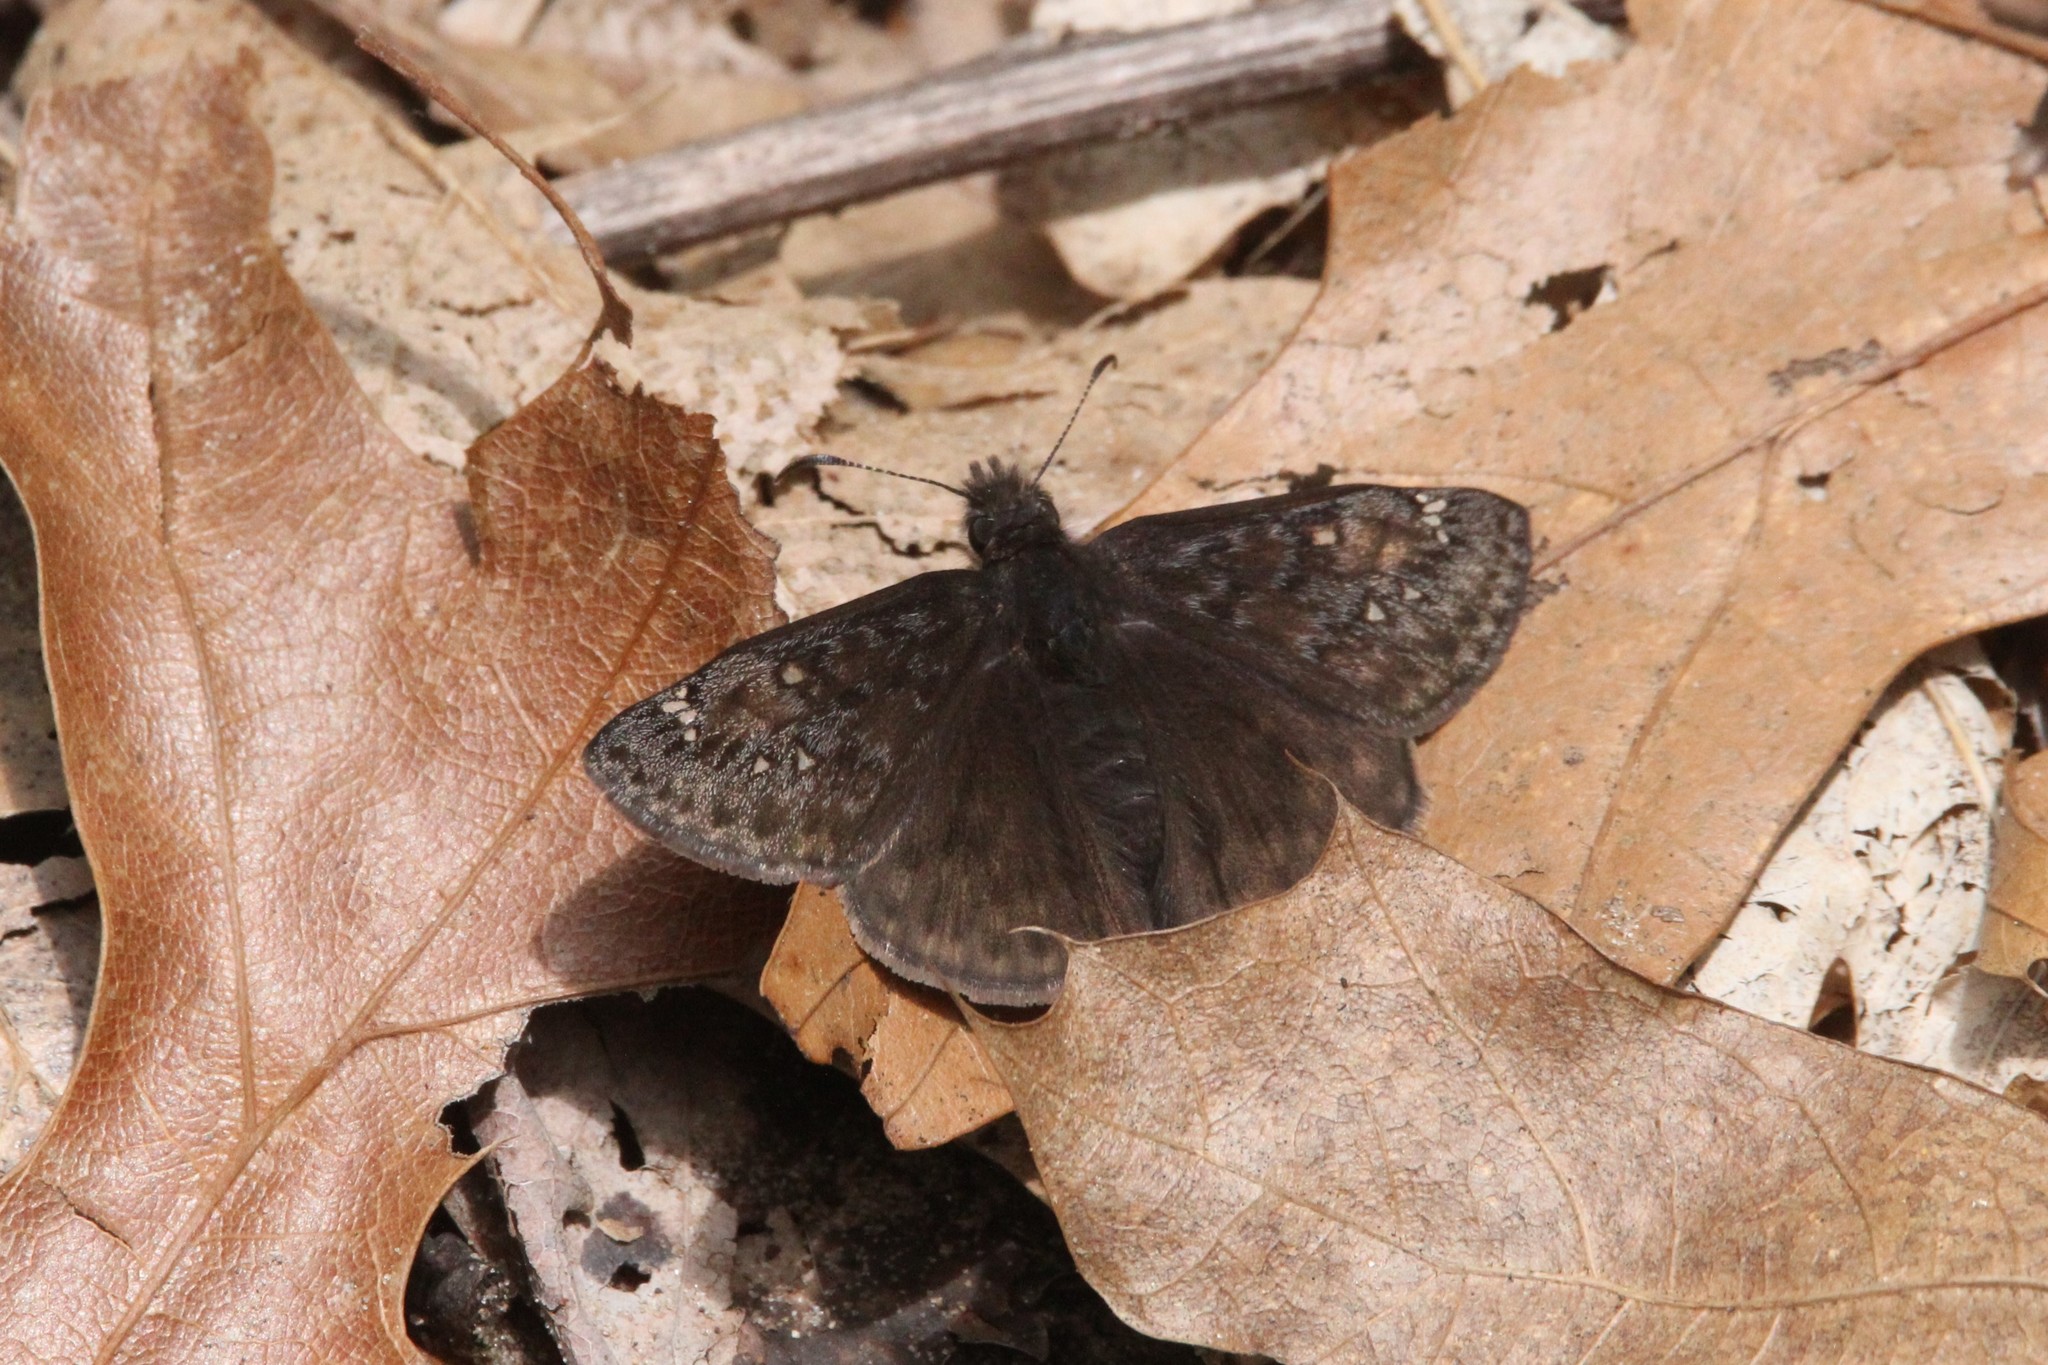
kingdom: Animalia
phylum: Arthropoda
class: Insecta
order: Lepidoptera
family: Hesperiidae
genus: Erynnis
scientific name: Erynnis juvenalis
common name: Juvenal's duskywing
